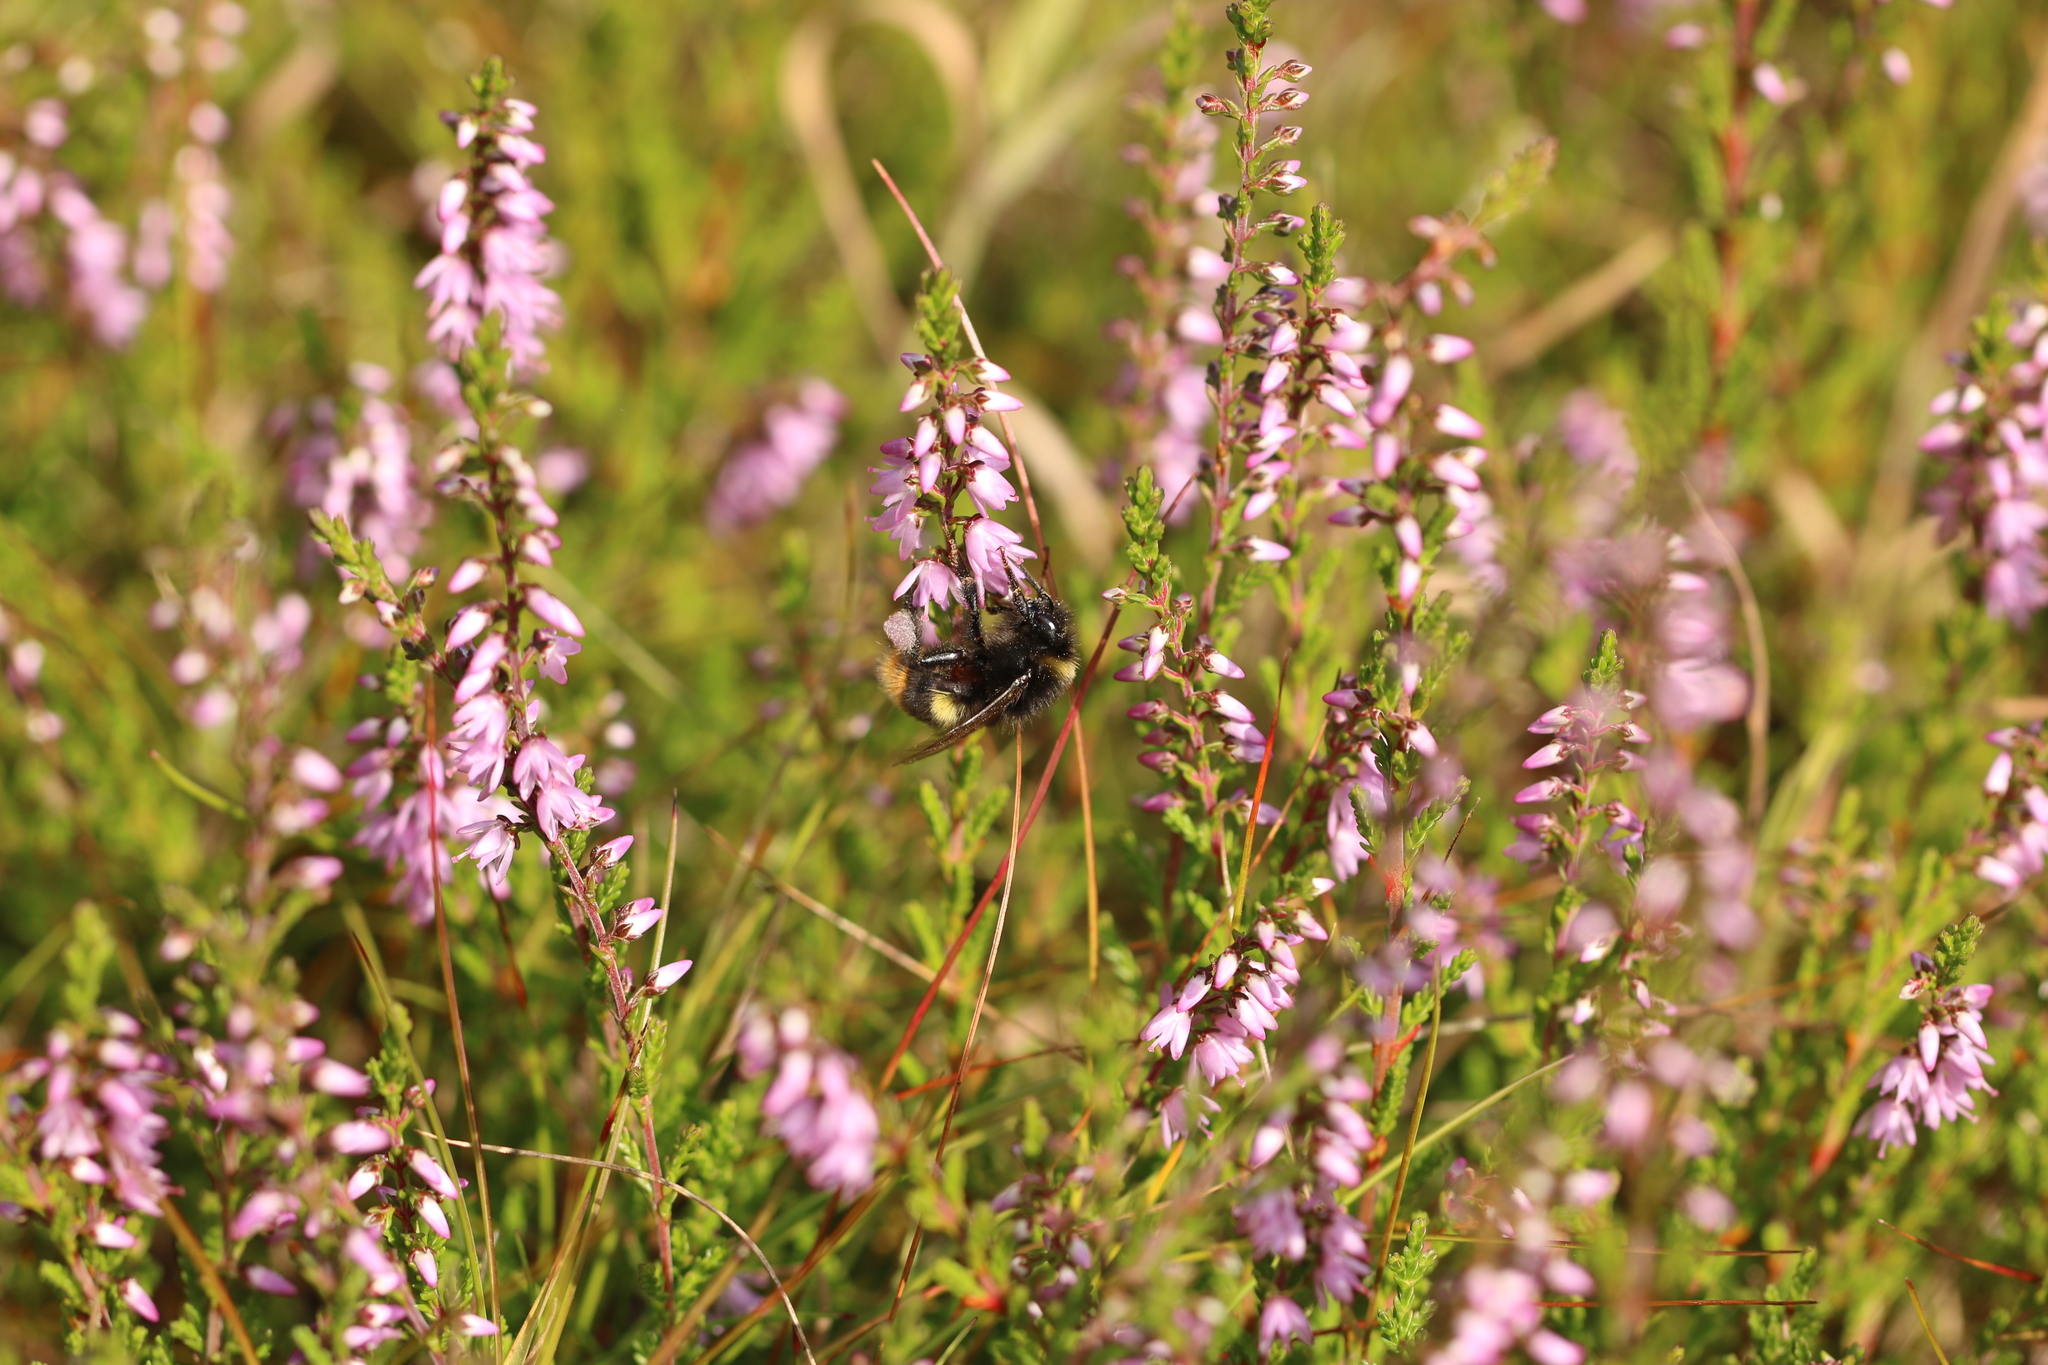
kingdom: Animalia
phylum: Arthropoda
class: Insecta
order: Hymenoptera
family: Apidae
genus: Bombus
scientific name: Bombus soroeensis
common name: Broken-belted humble-bee
